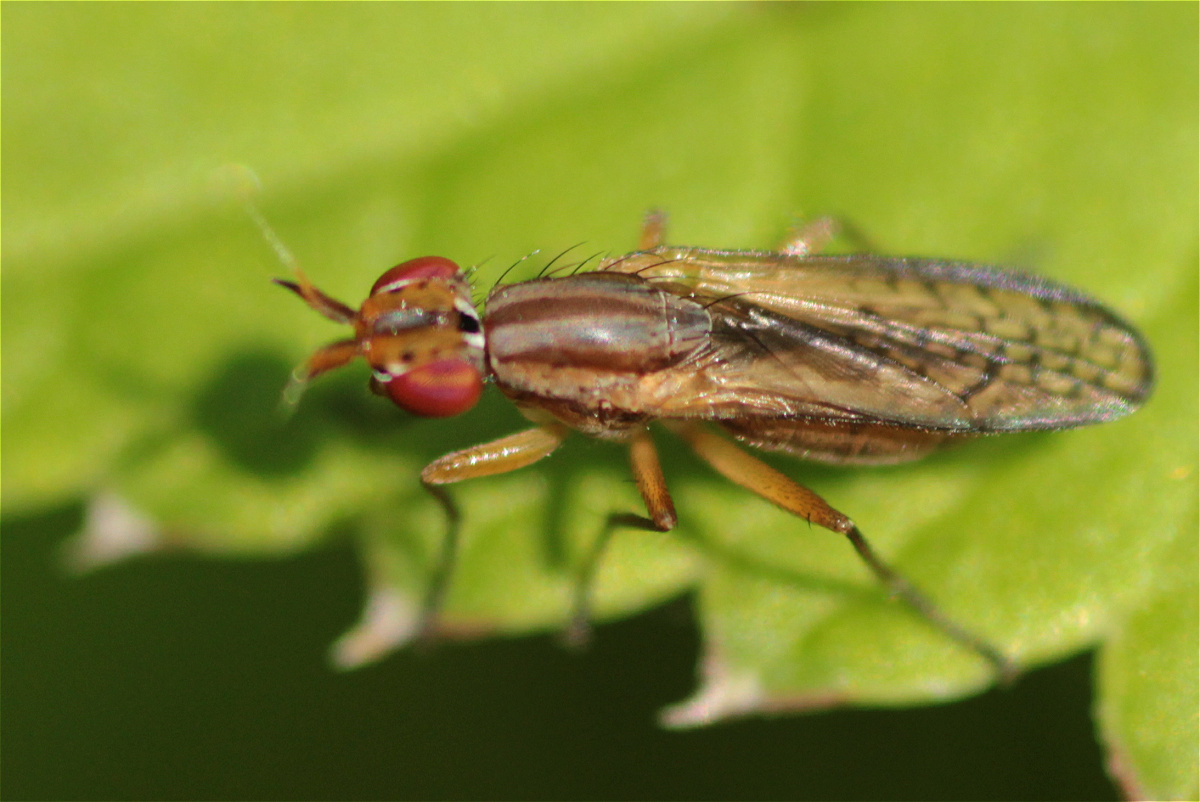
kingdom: Animalia
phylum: Arthropoda
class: Insecta
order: Diptera
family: Sciomyzidae
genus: Limnia
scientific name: Limnia paludicola
